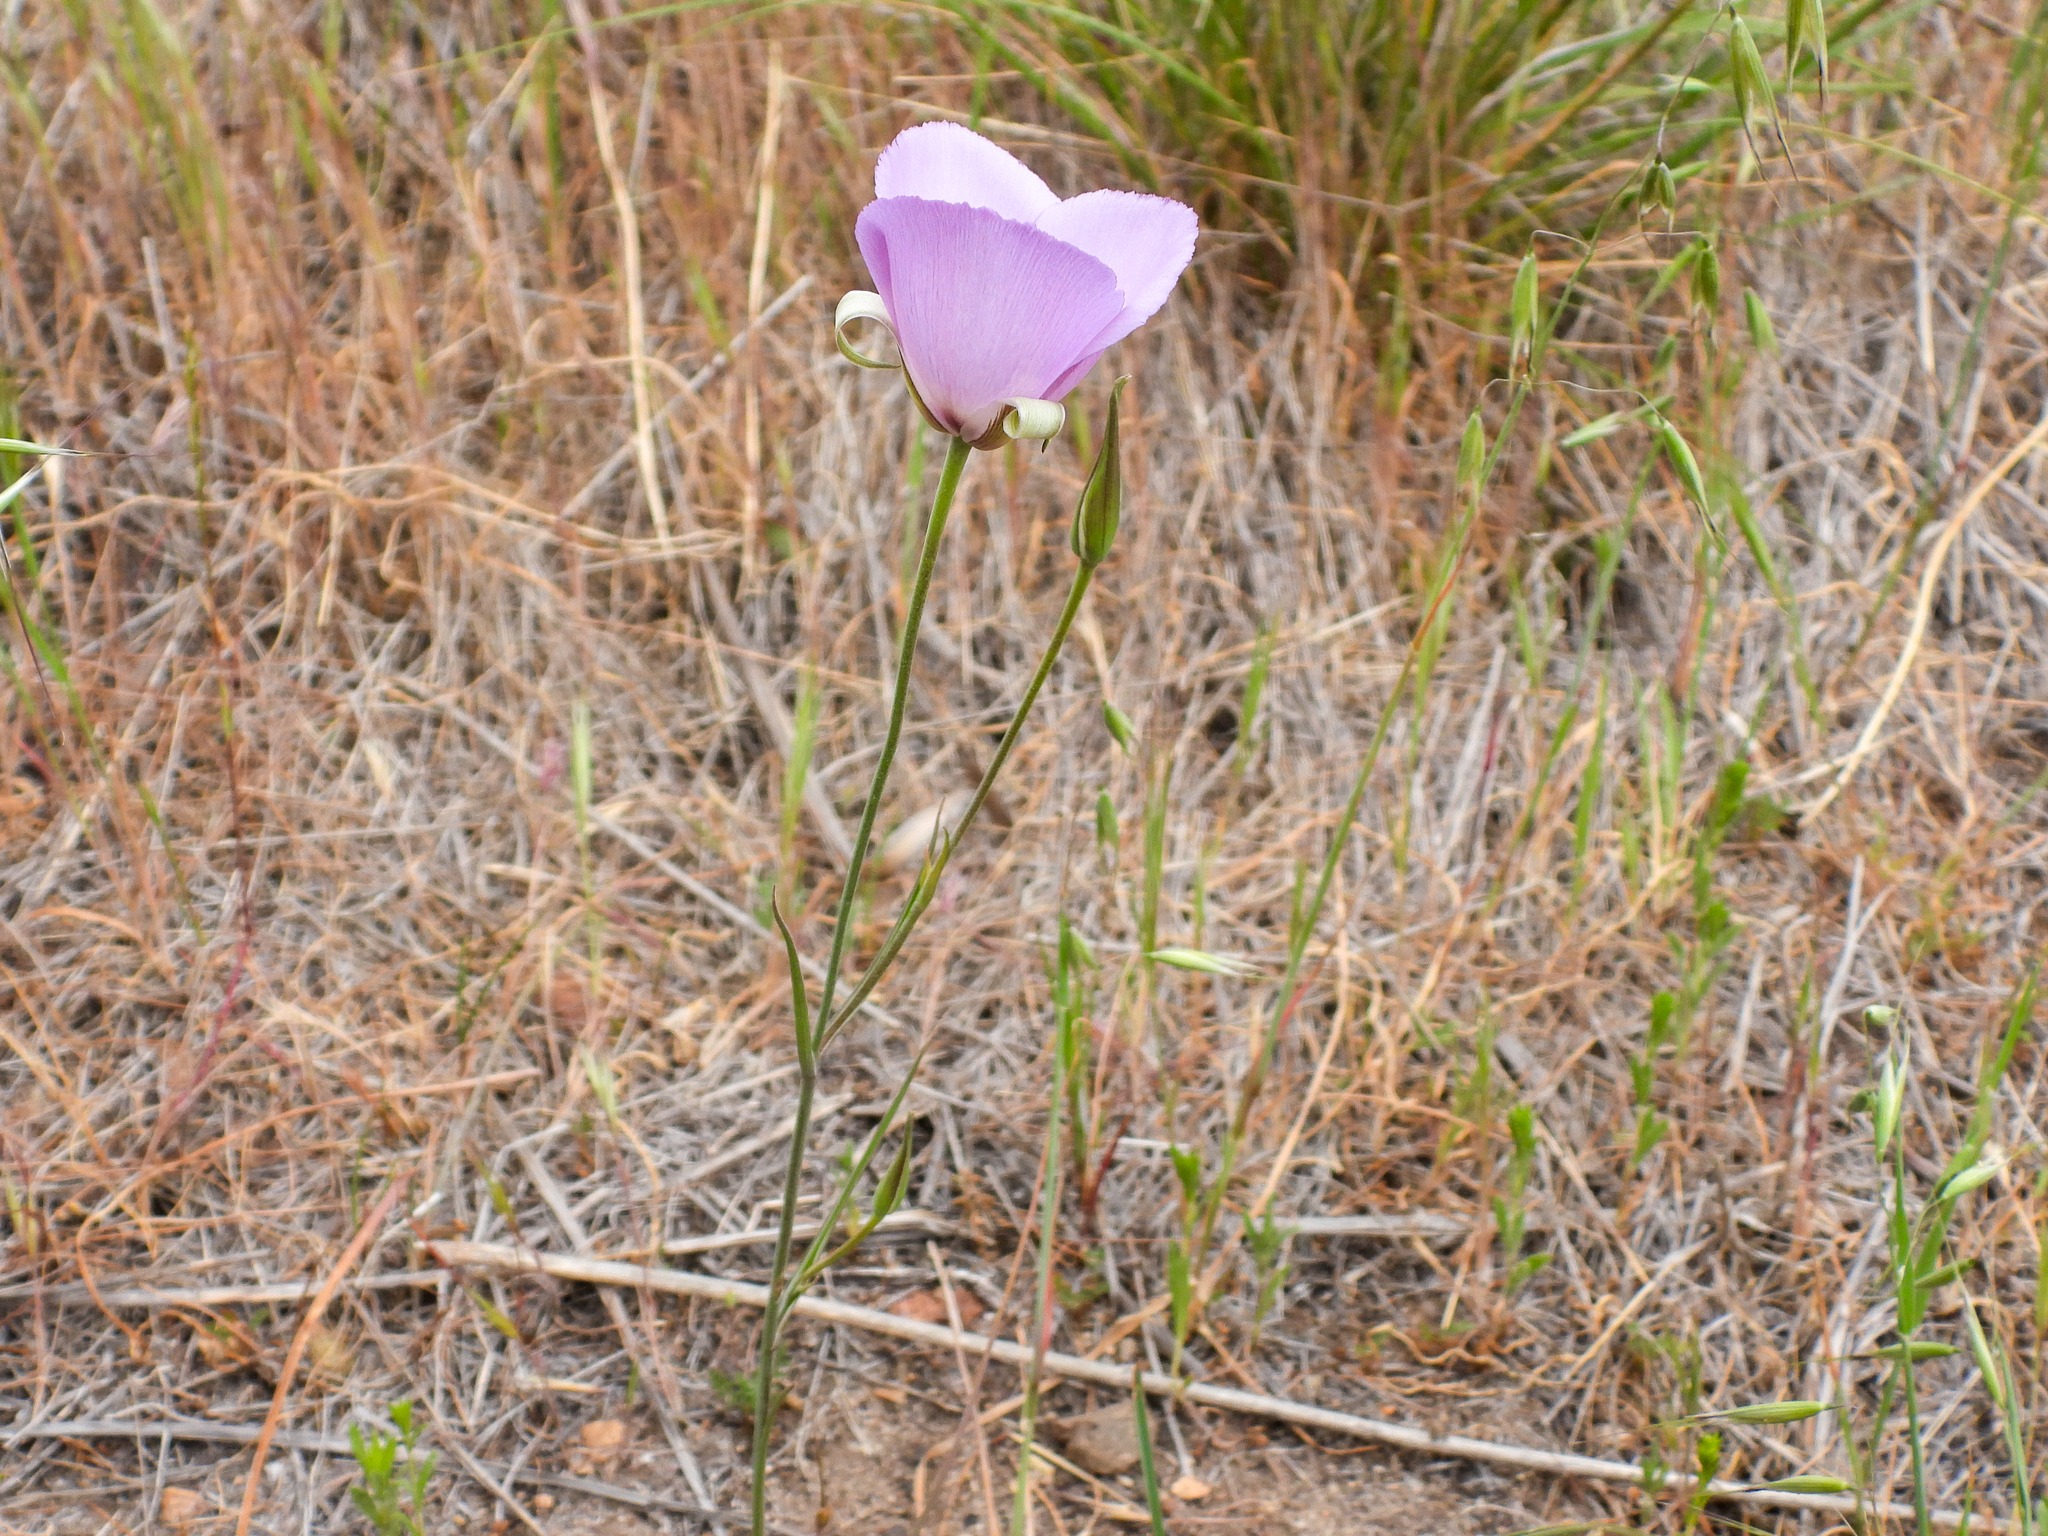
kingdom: Plantae
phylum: Tracheophyta
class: Liliopsida
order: Liliales
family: Liliaceae
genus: Calochortus
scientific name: Calochortus splendens
